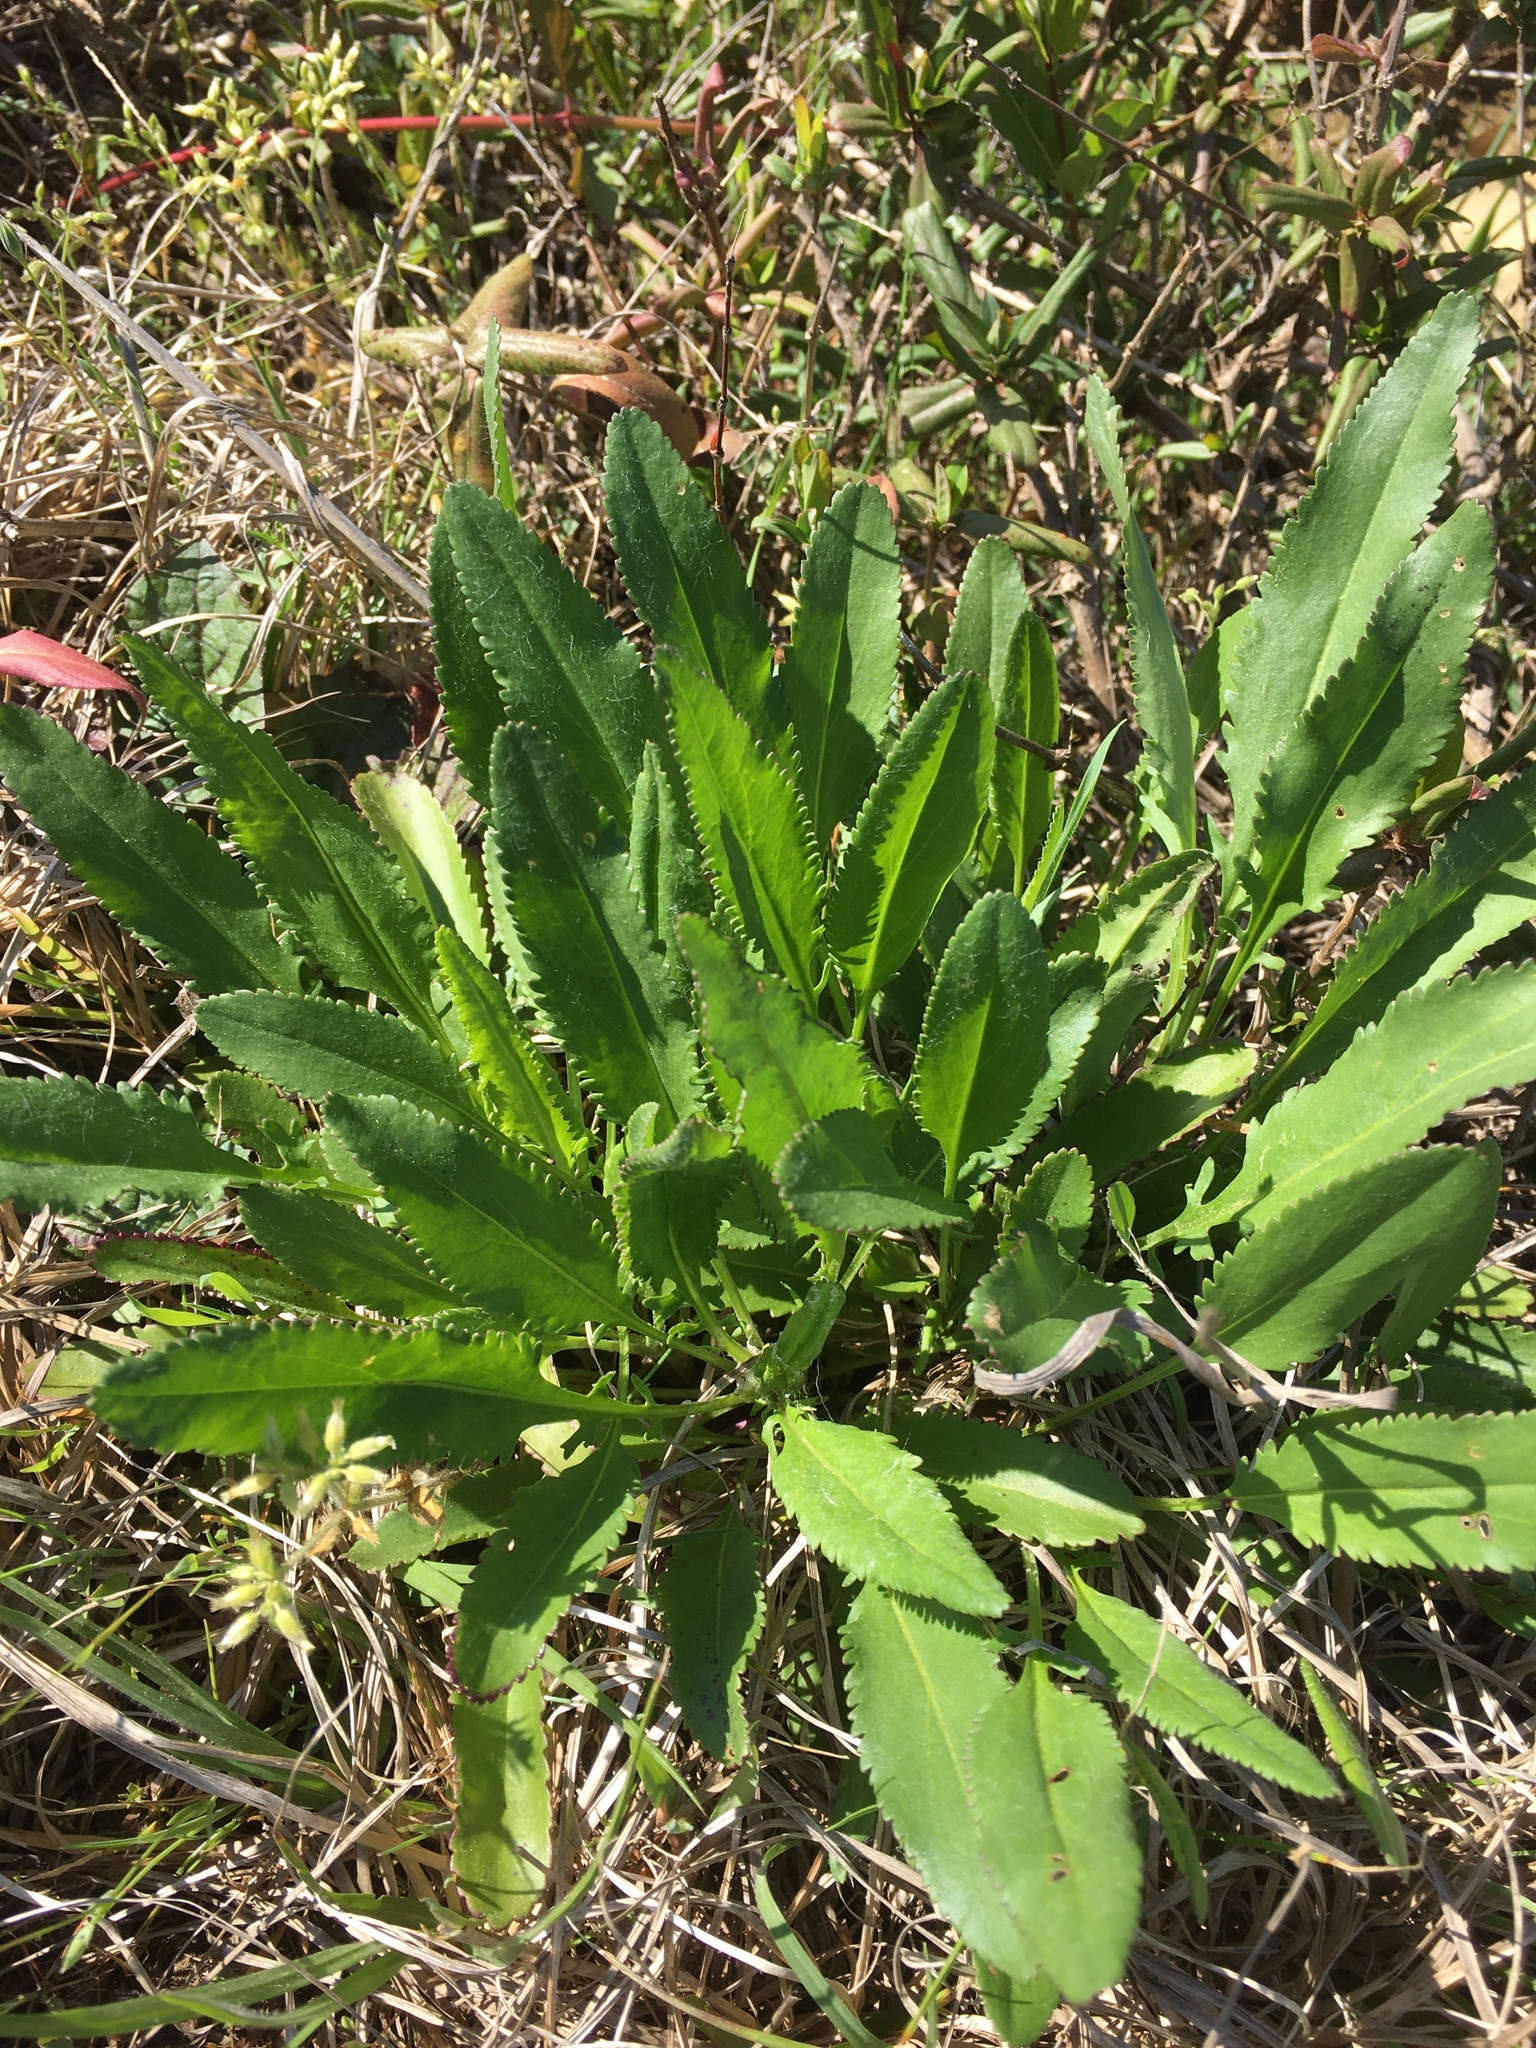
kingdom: Plantae
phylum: Tracheophyta
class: Magnoliopsida
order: Asterales
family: Asteraceae
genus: Packera
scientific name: Packera anonyma
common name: Small ragwort
